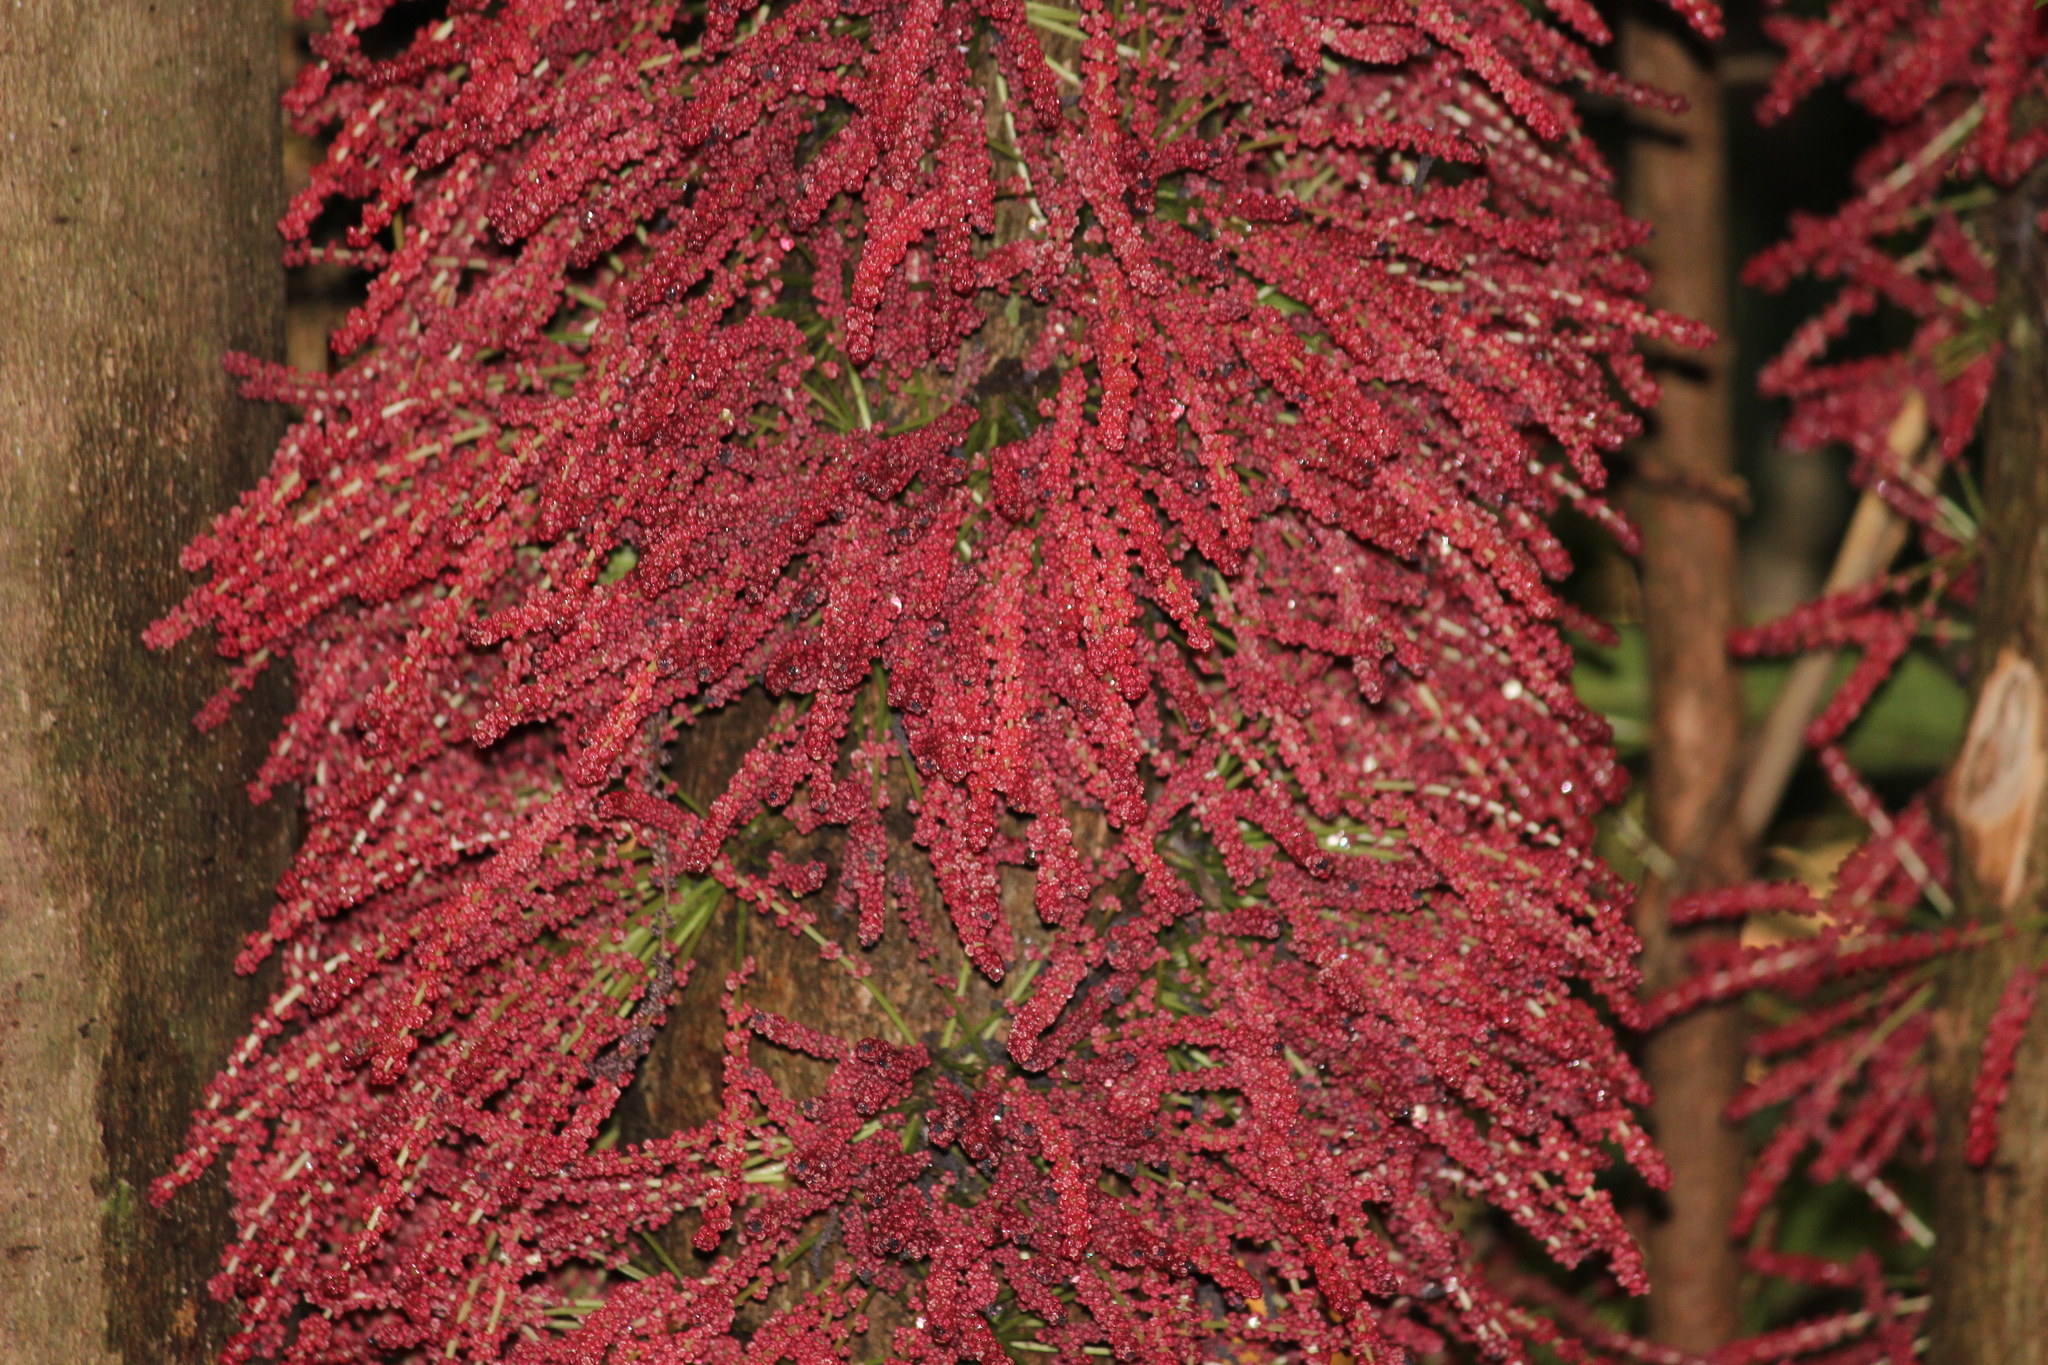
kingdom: Plantae
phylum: Tracheophyta
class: Magnoliopsida
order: Malpighiales
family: Phyllanthaceae
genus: Baccaurea
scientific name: Baccaurea courtallensis
